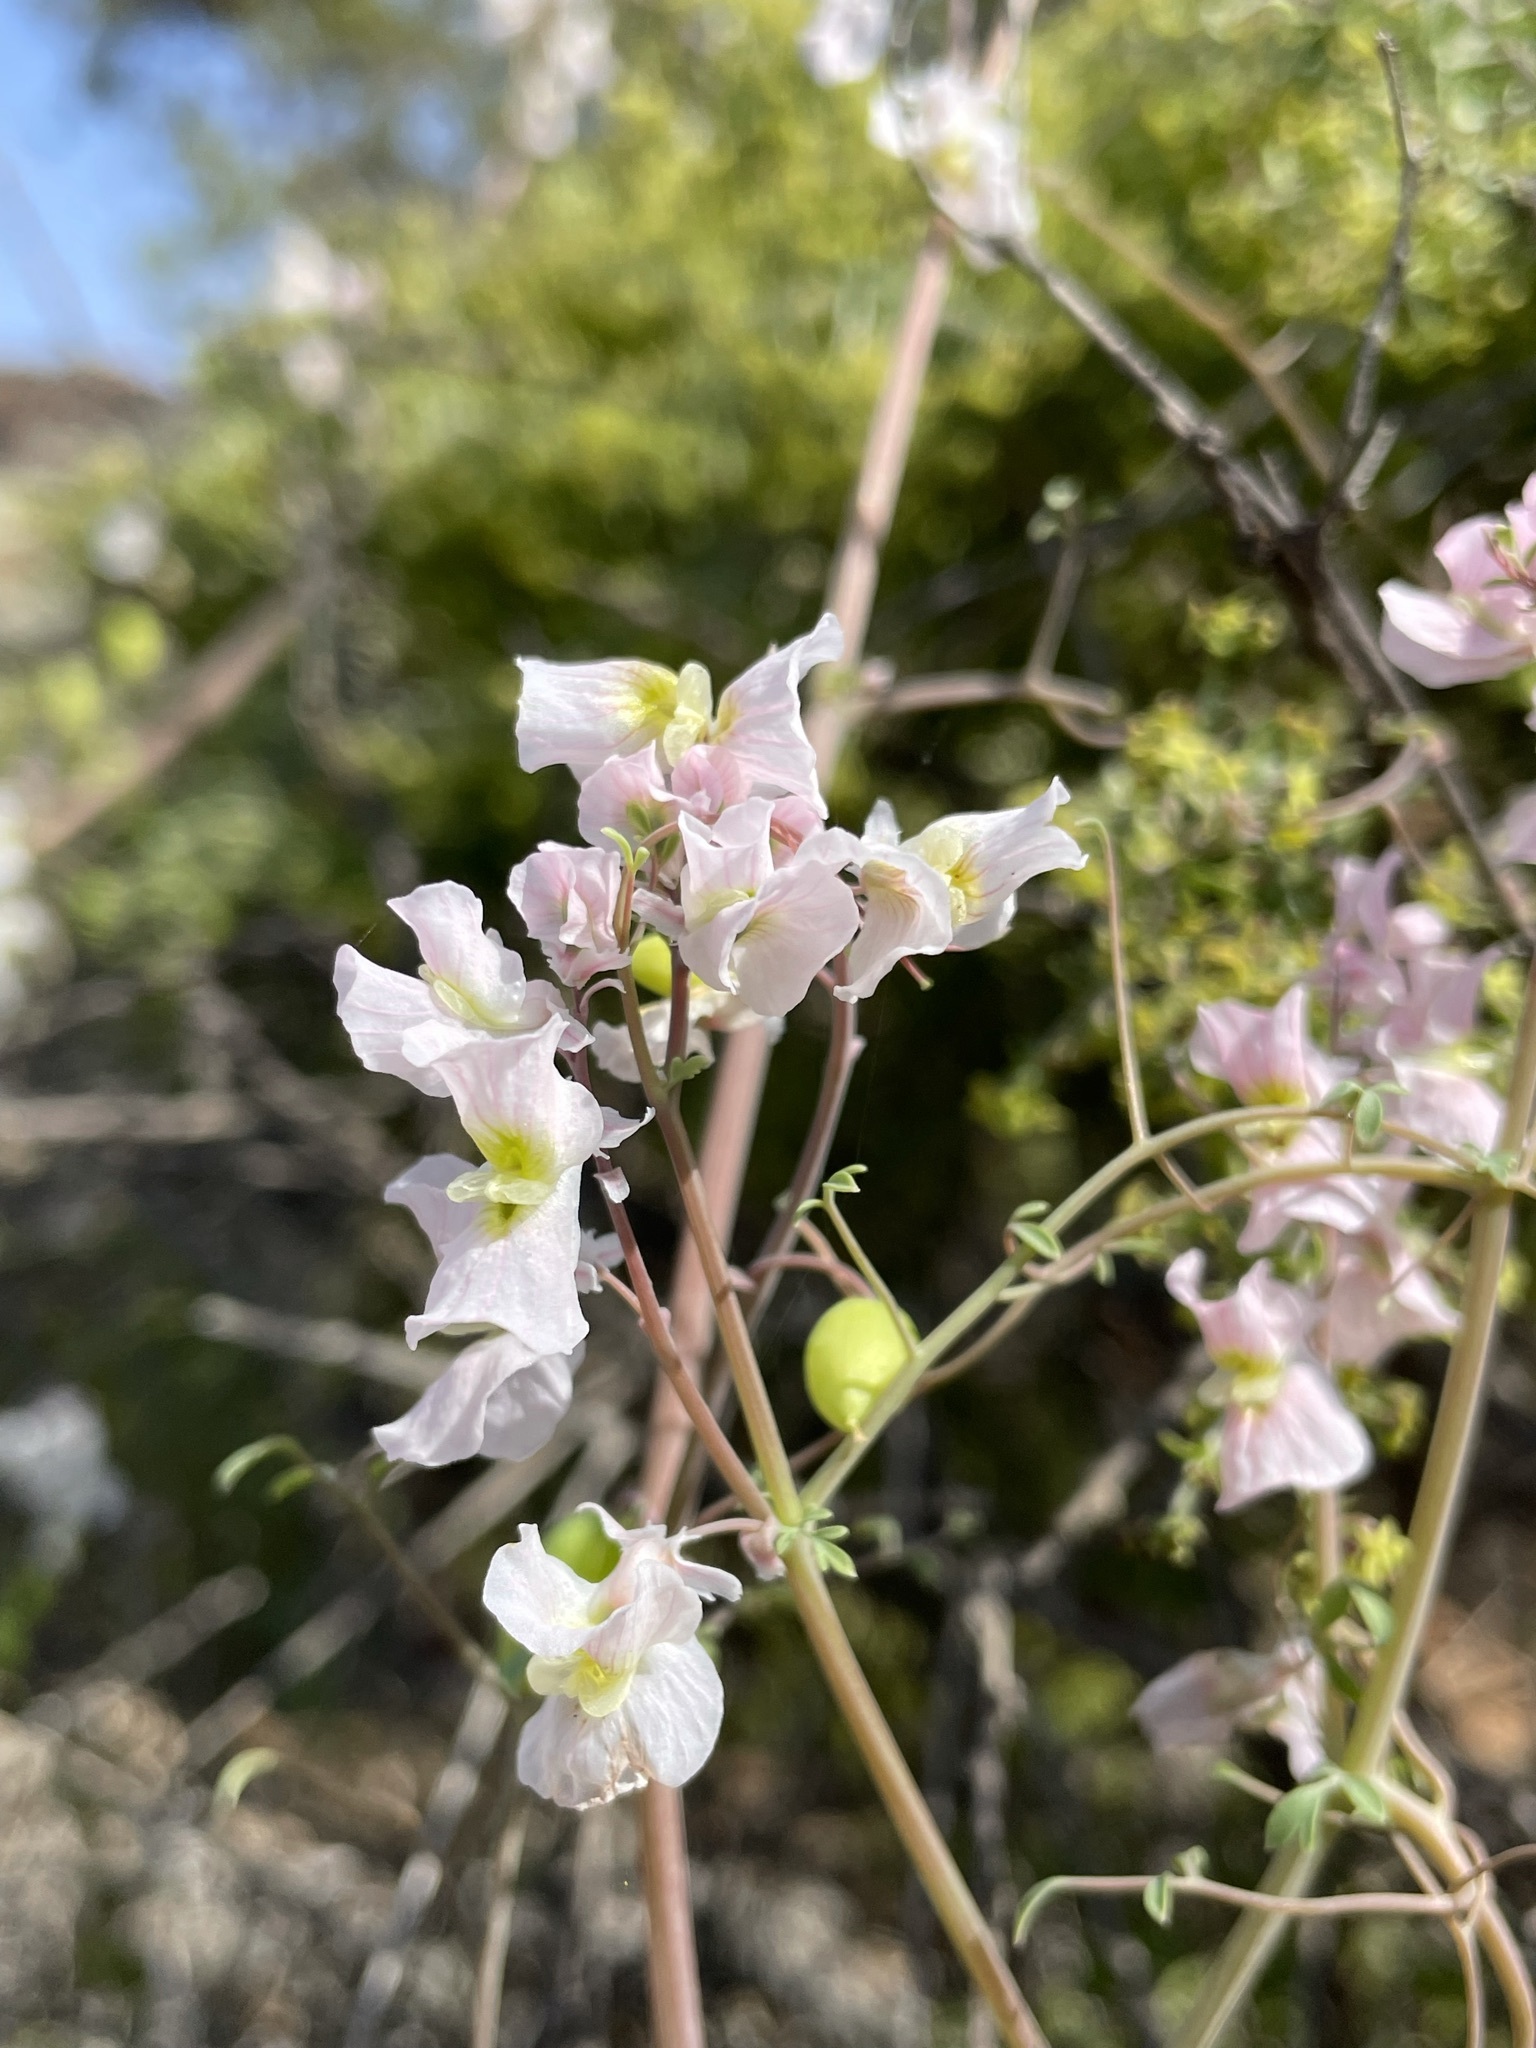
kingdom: Plantae
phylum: Tracheophyta
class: Magnoliopsida
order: Ranunculales
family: Papaveraceae
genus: Cysticapnos
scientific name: Cysticapnos vesicaria
